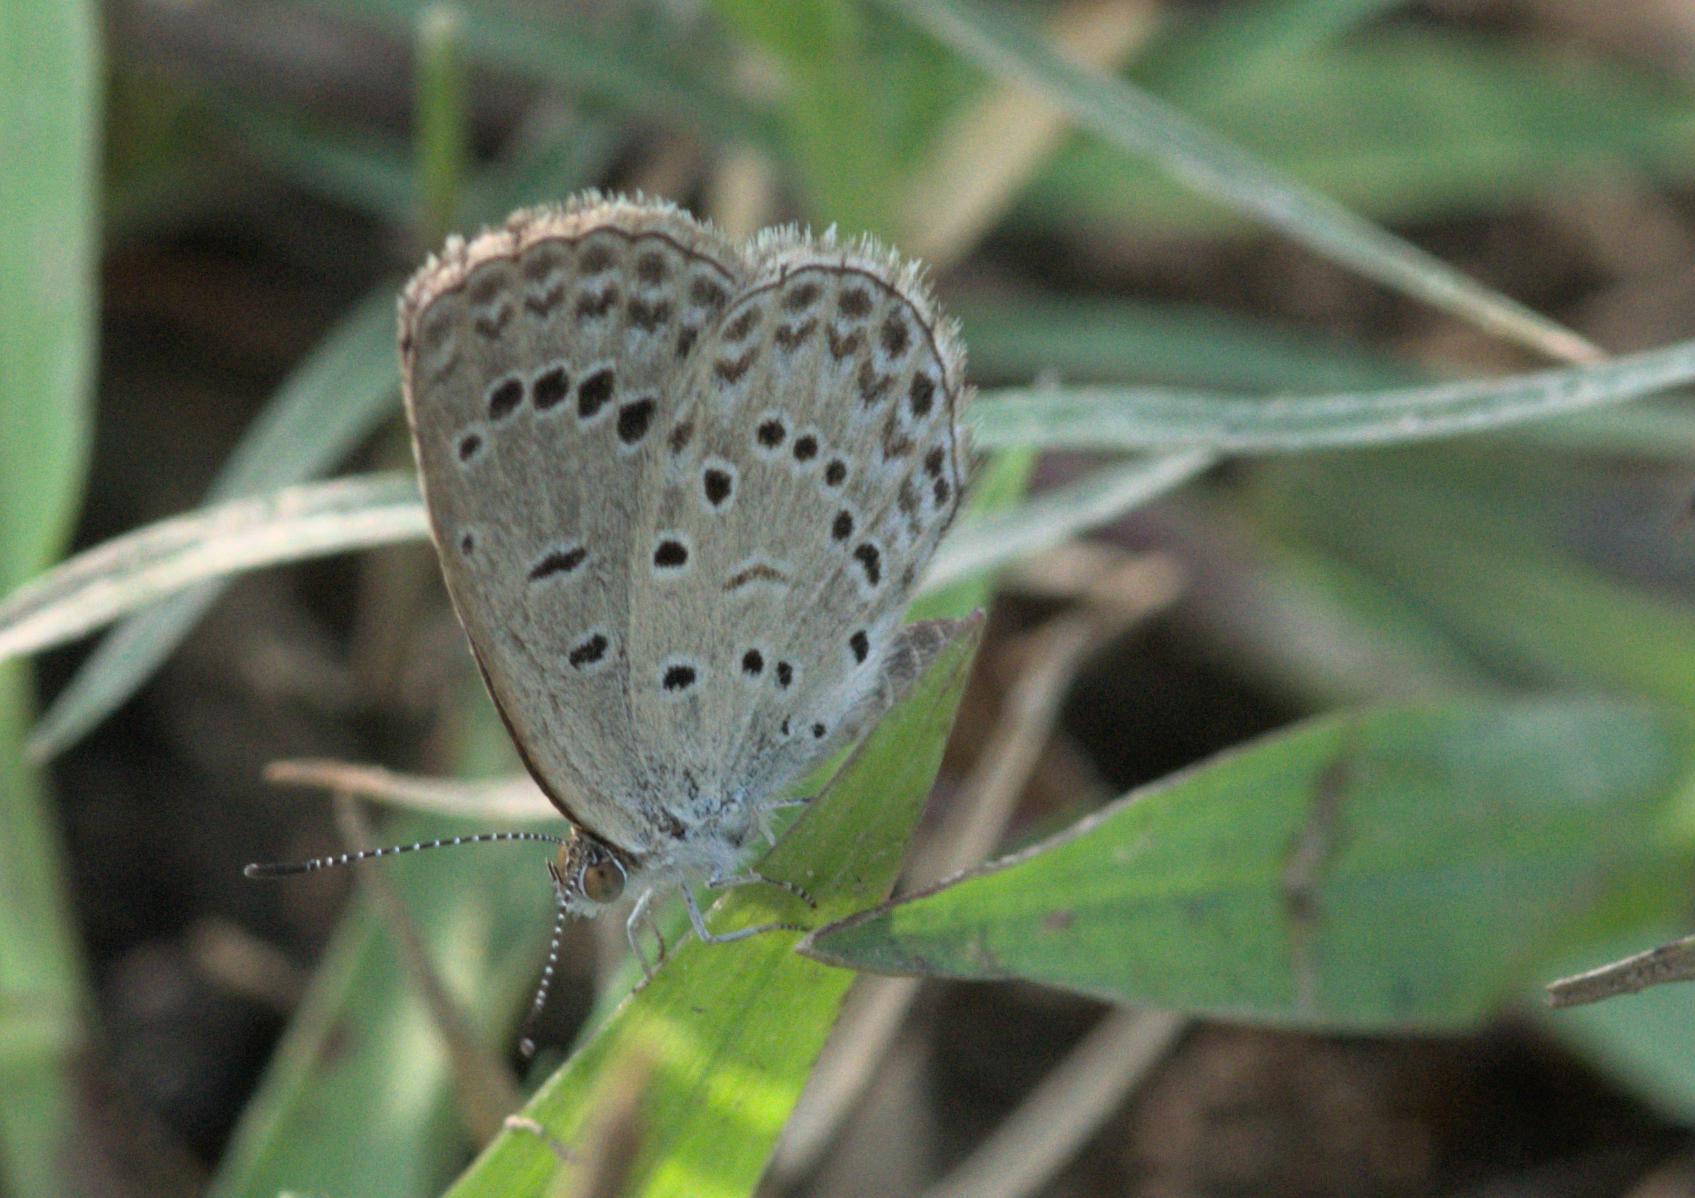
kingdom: Animalia
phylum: Arthropoda
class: Insecta
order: Lepidoptera
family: Lycaenidae
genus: Pseudozizeeria
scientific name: Pseudozizeeria maha
